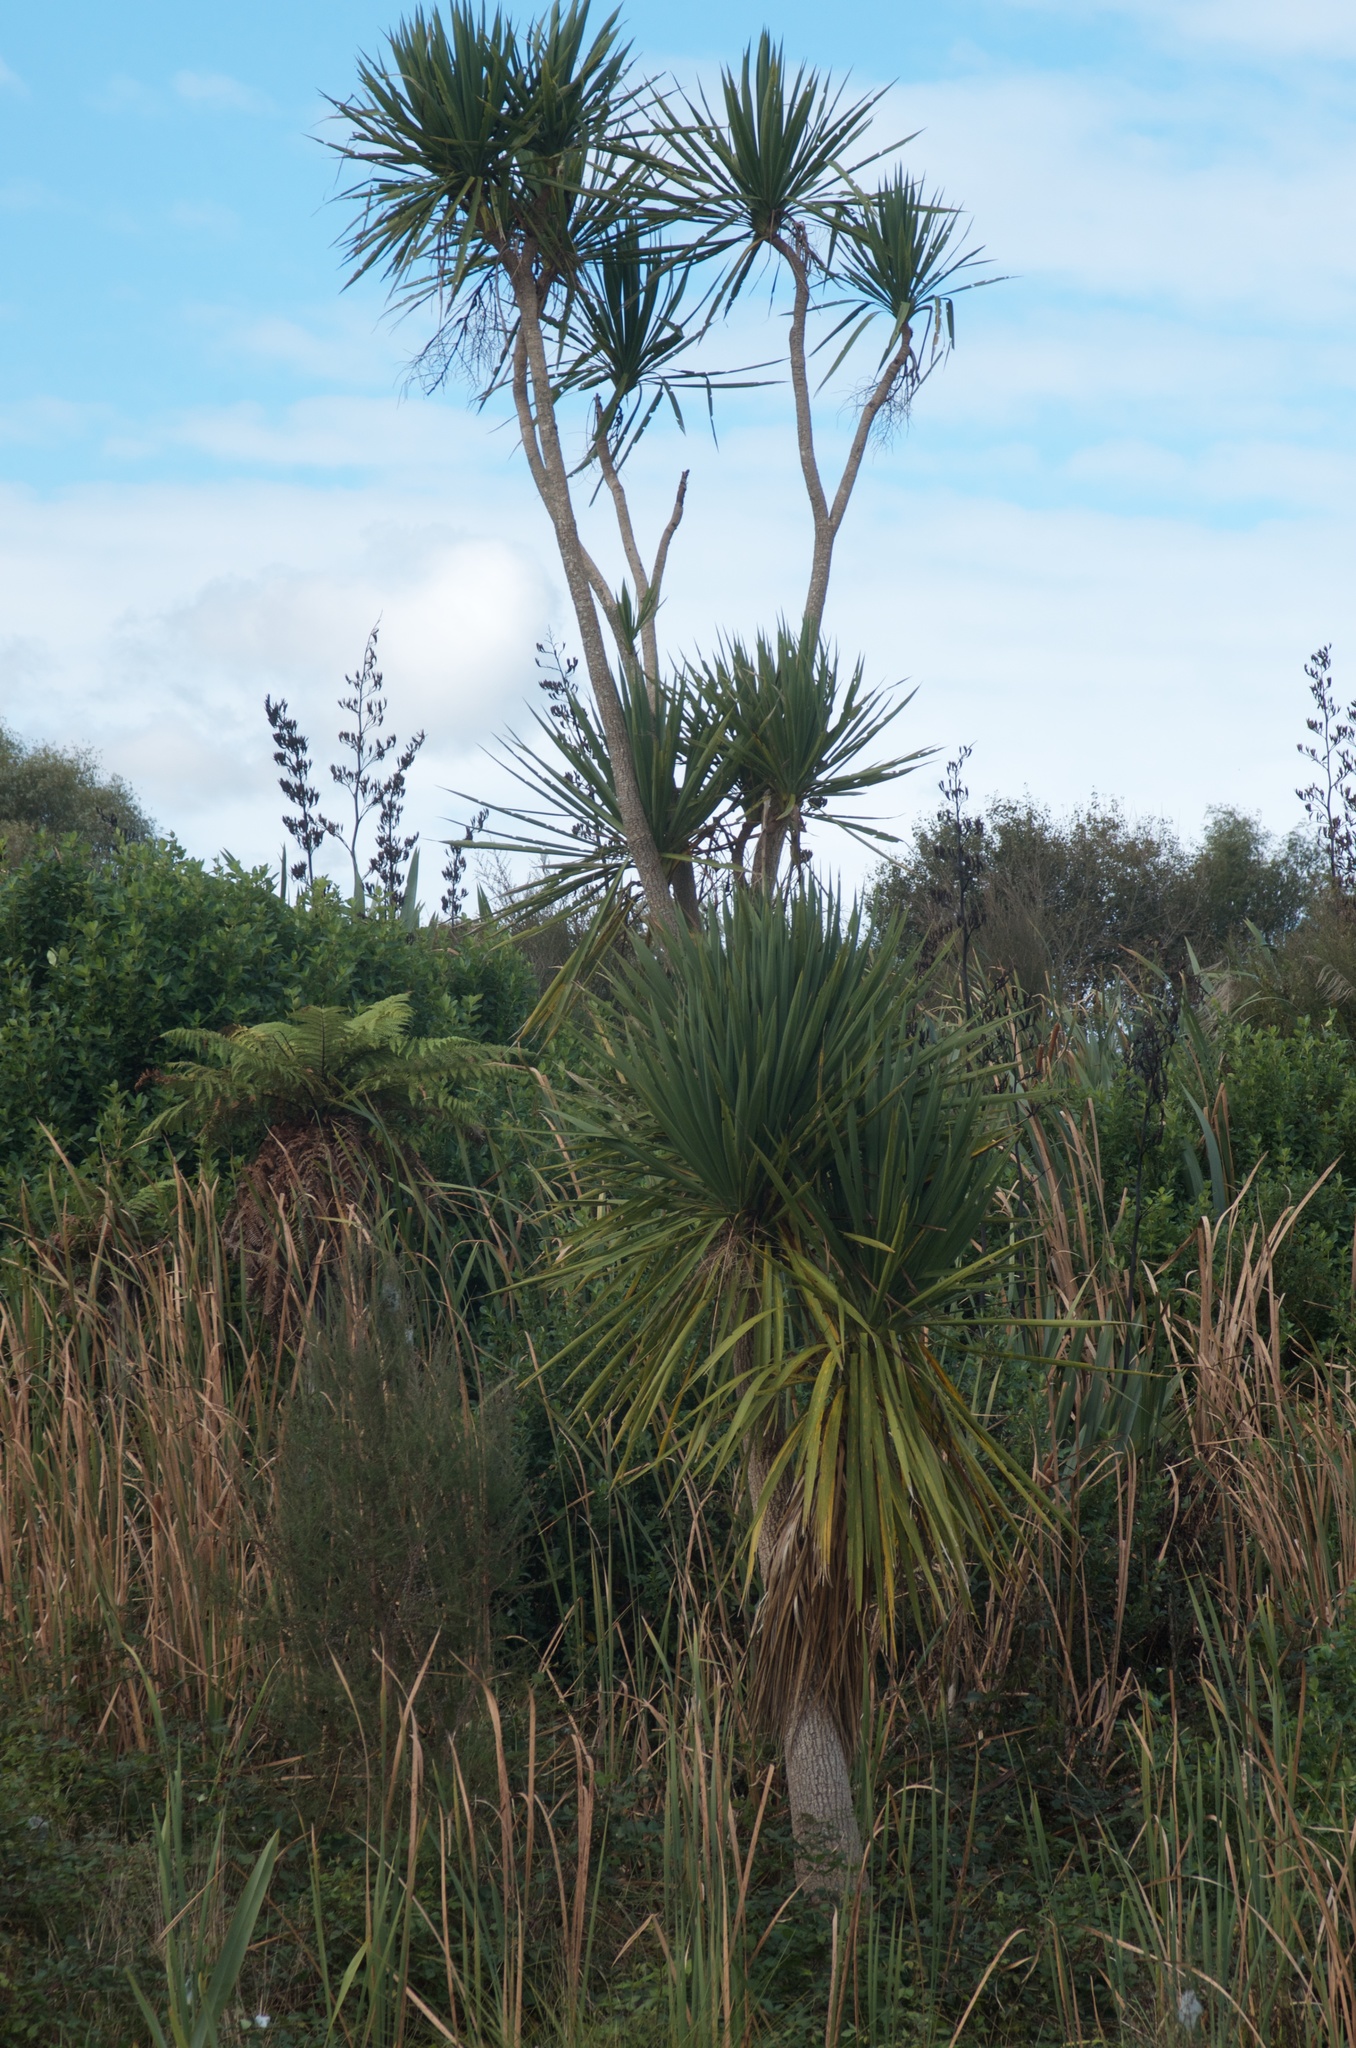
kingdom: Plantae
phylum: Tracheophyta
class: Liliopsida
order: Asparagales
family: Asparagaceae
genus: Cordyline
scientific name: Cordyline australis
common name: Cabbage-palm
